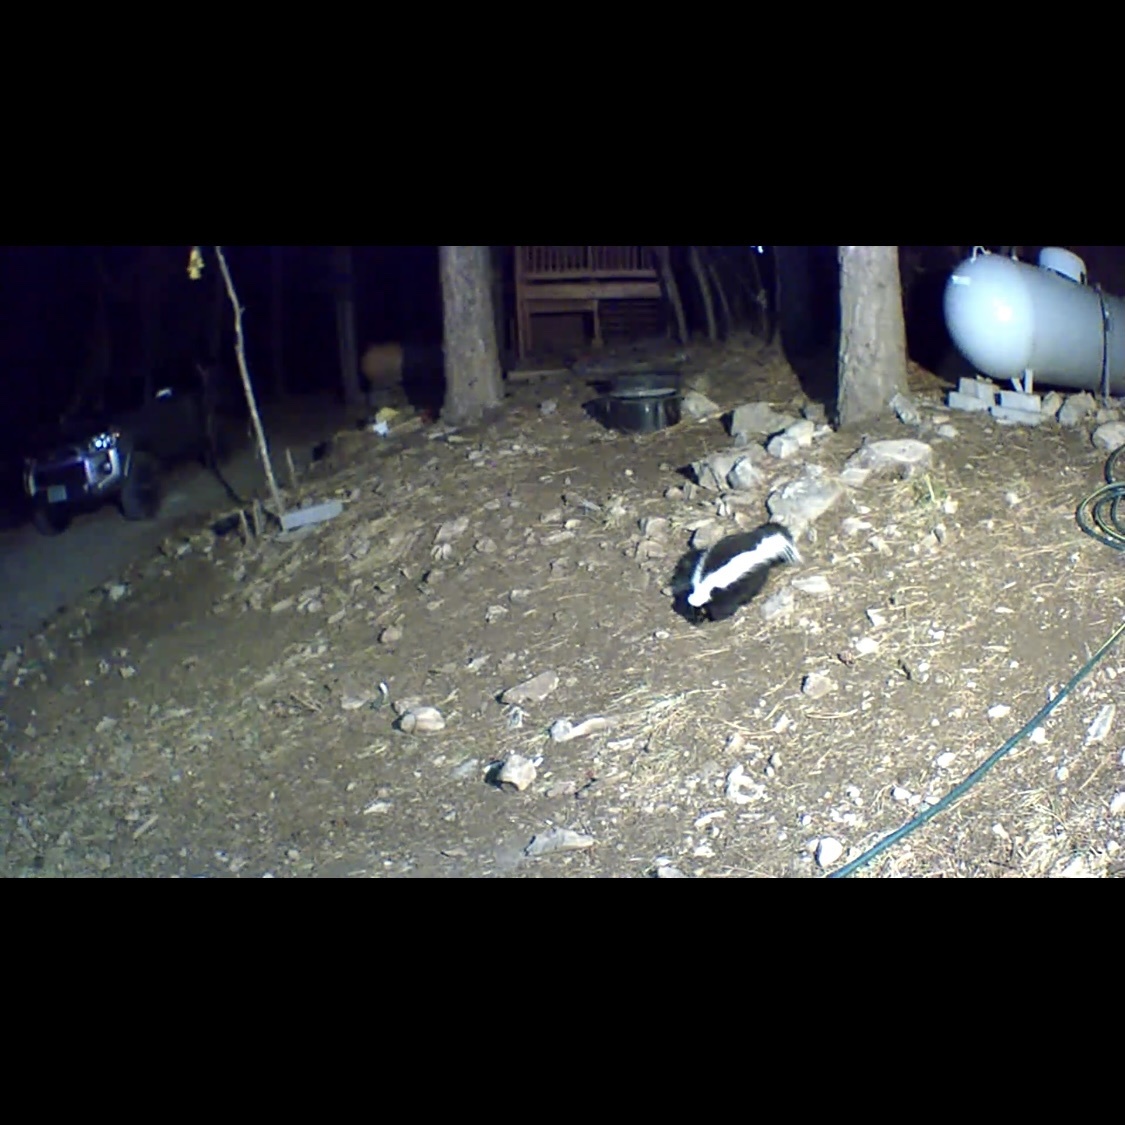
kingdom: Animalia
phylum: Chordata
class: Mammalia
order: Carnivora
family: Mephitidae
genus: Mephitis
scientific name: Mephitis mephitis
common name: Striped skunk
